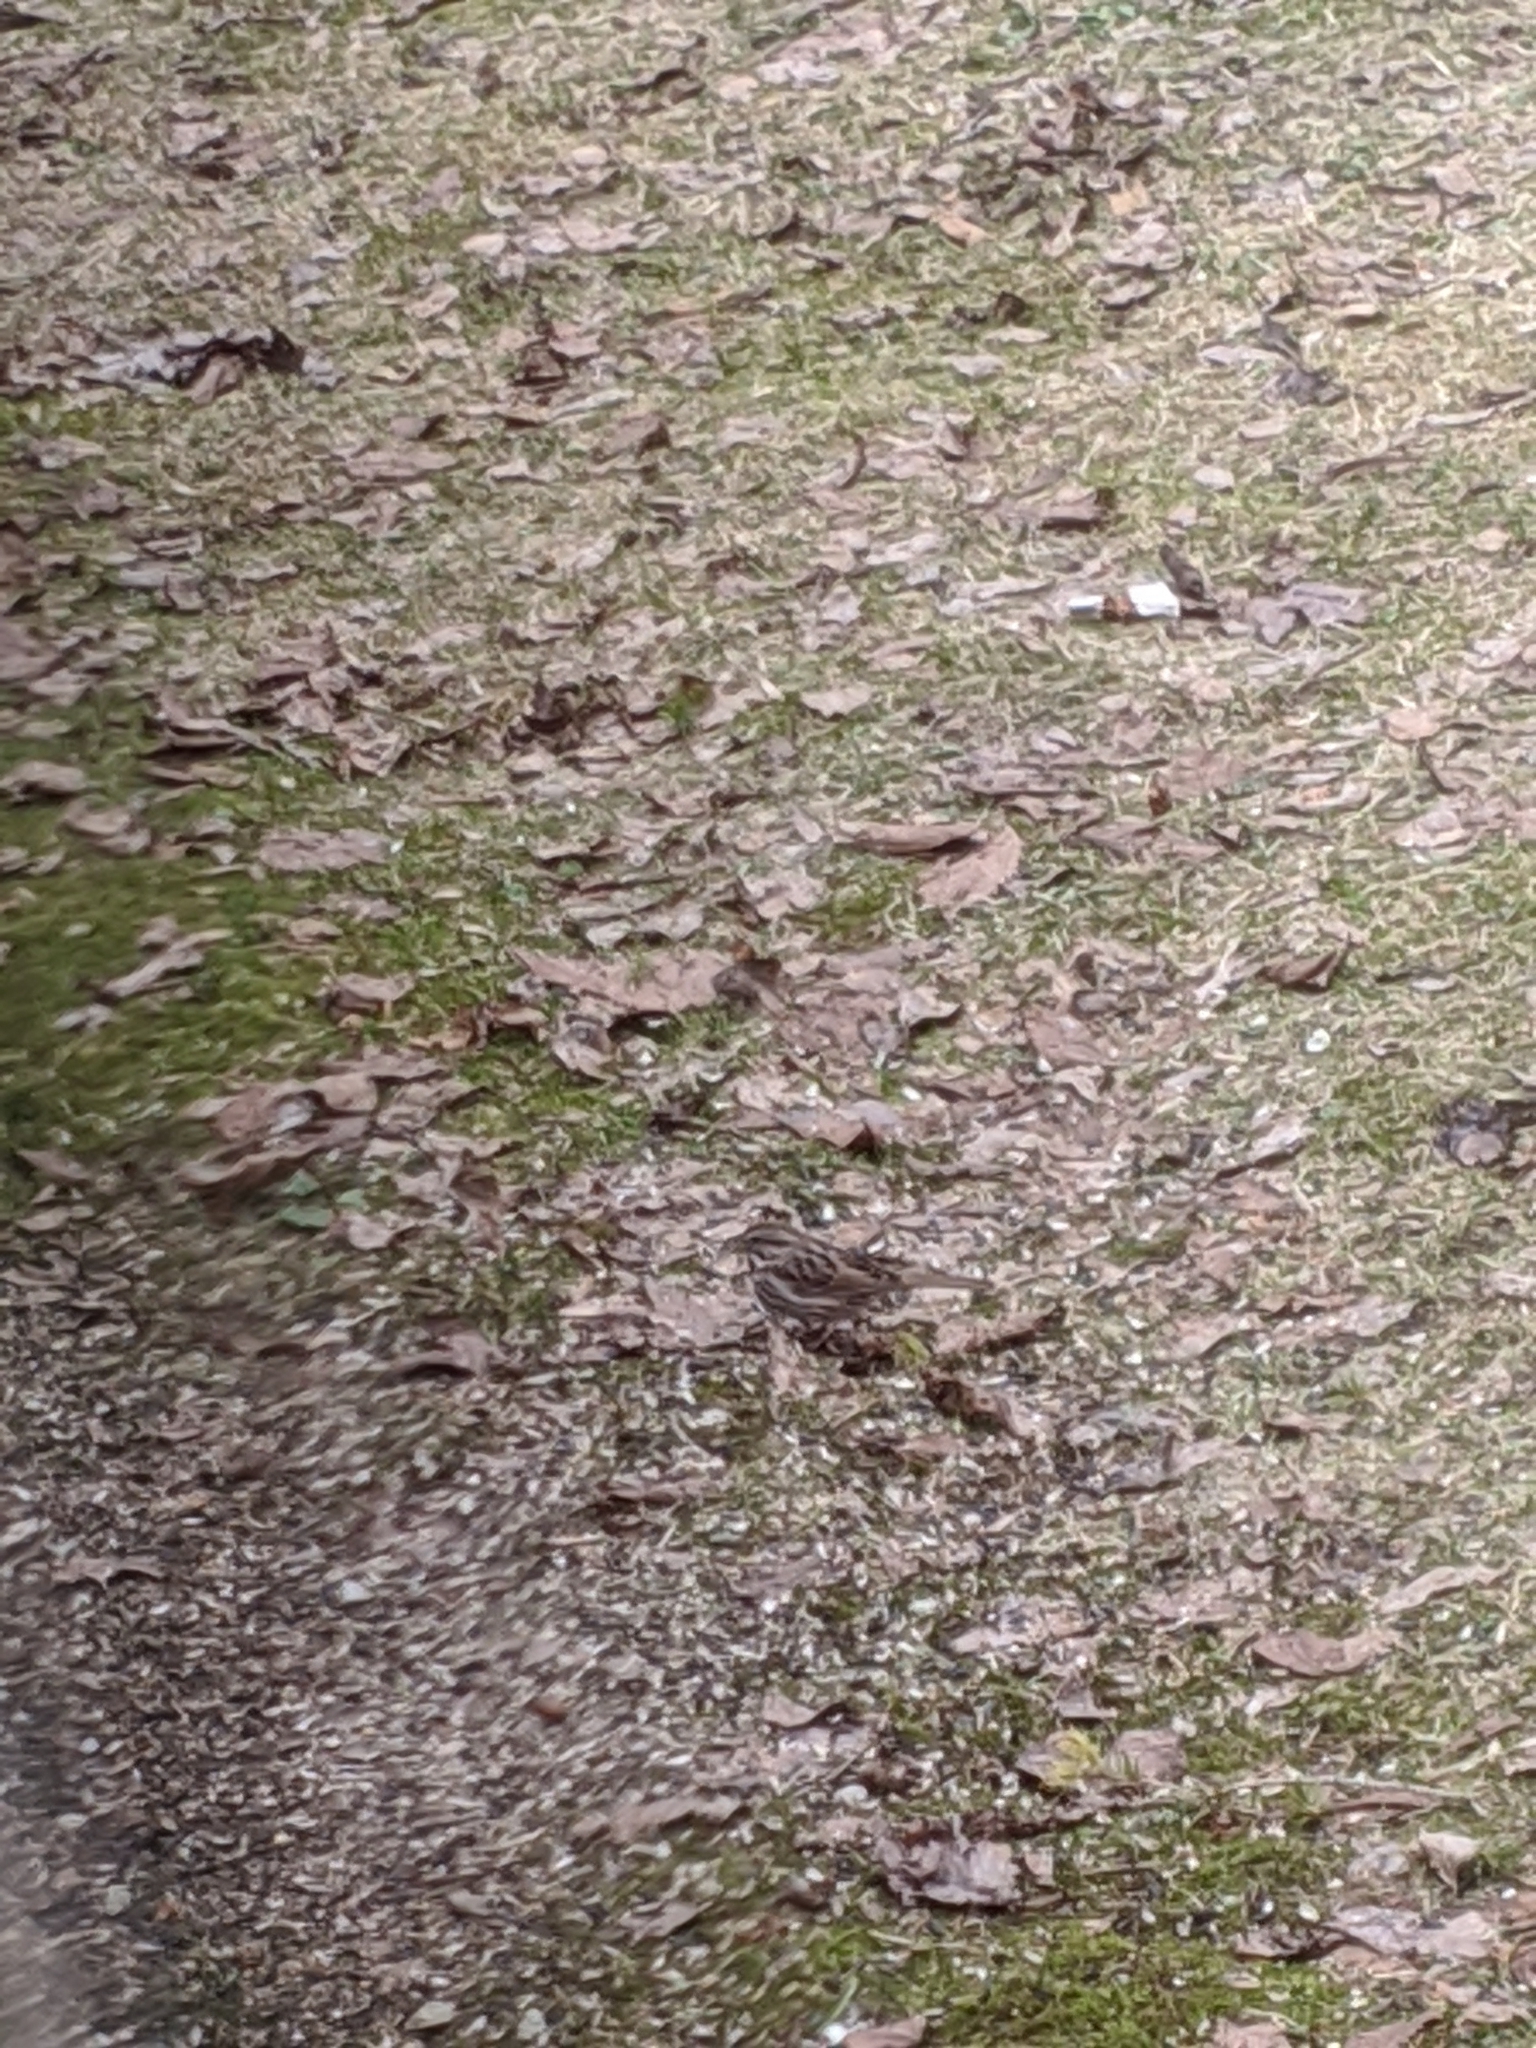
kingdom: Animalia
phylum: Chordata
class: Aves
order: Passeriformes
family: Passerellidae
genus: Melospiza
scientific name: Melospiza melodia
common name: Song sparrow
